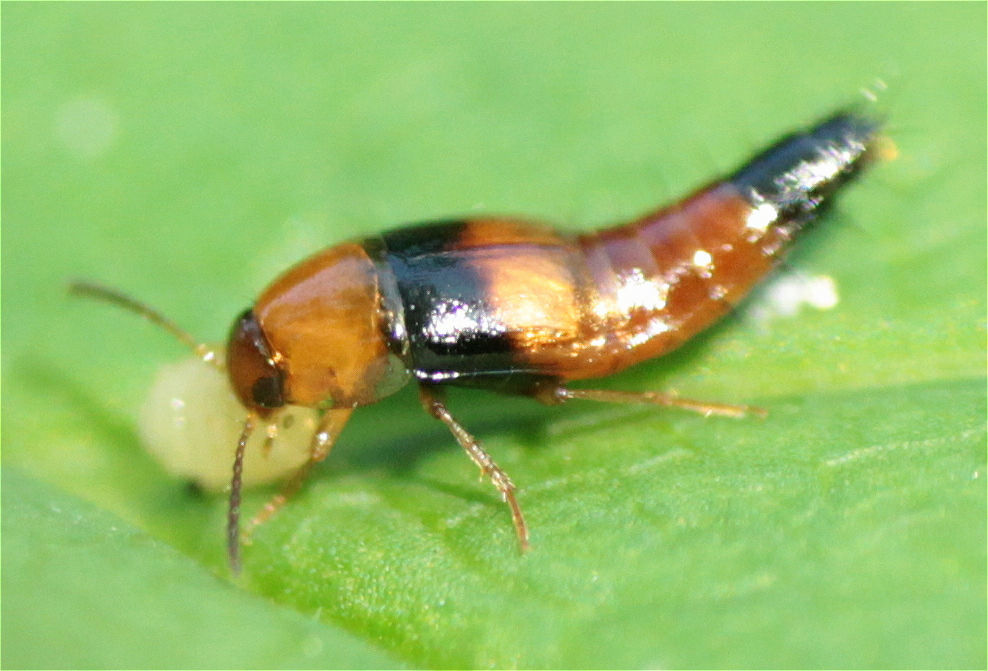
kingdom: Animalia
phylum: Arthropoda
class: Insecta
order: Coleoptera
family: Staphylinidae
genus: Tachyporus
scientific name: Tachyporus obtusus
